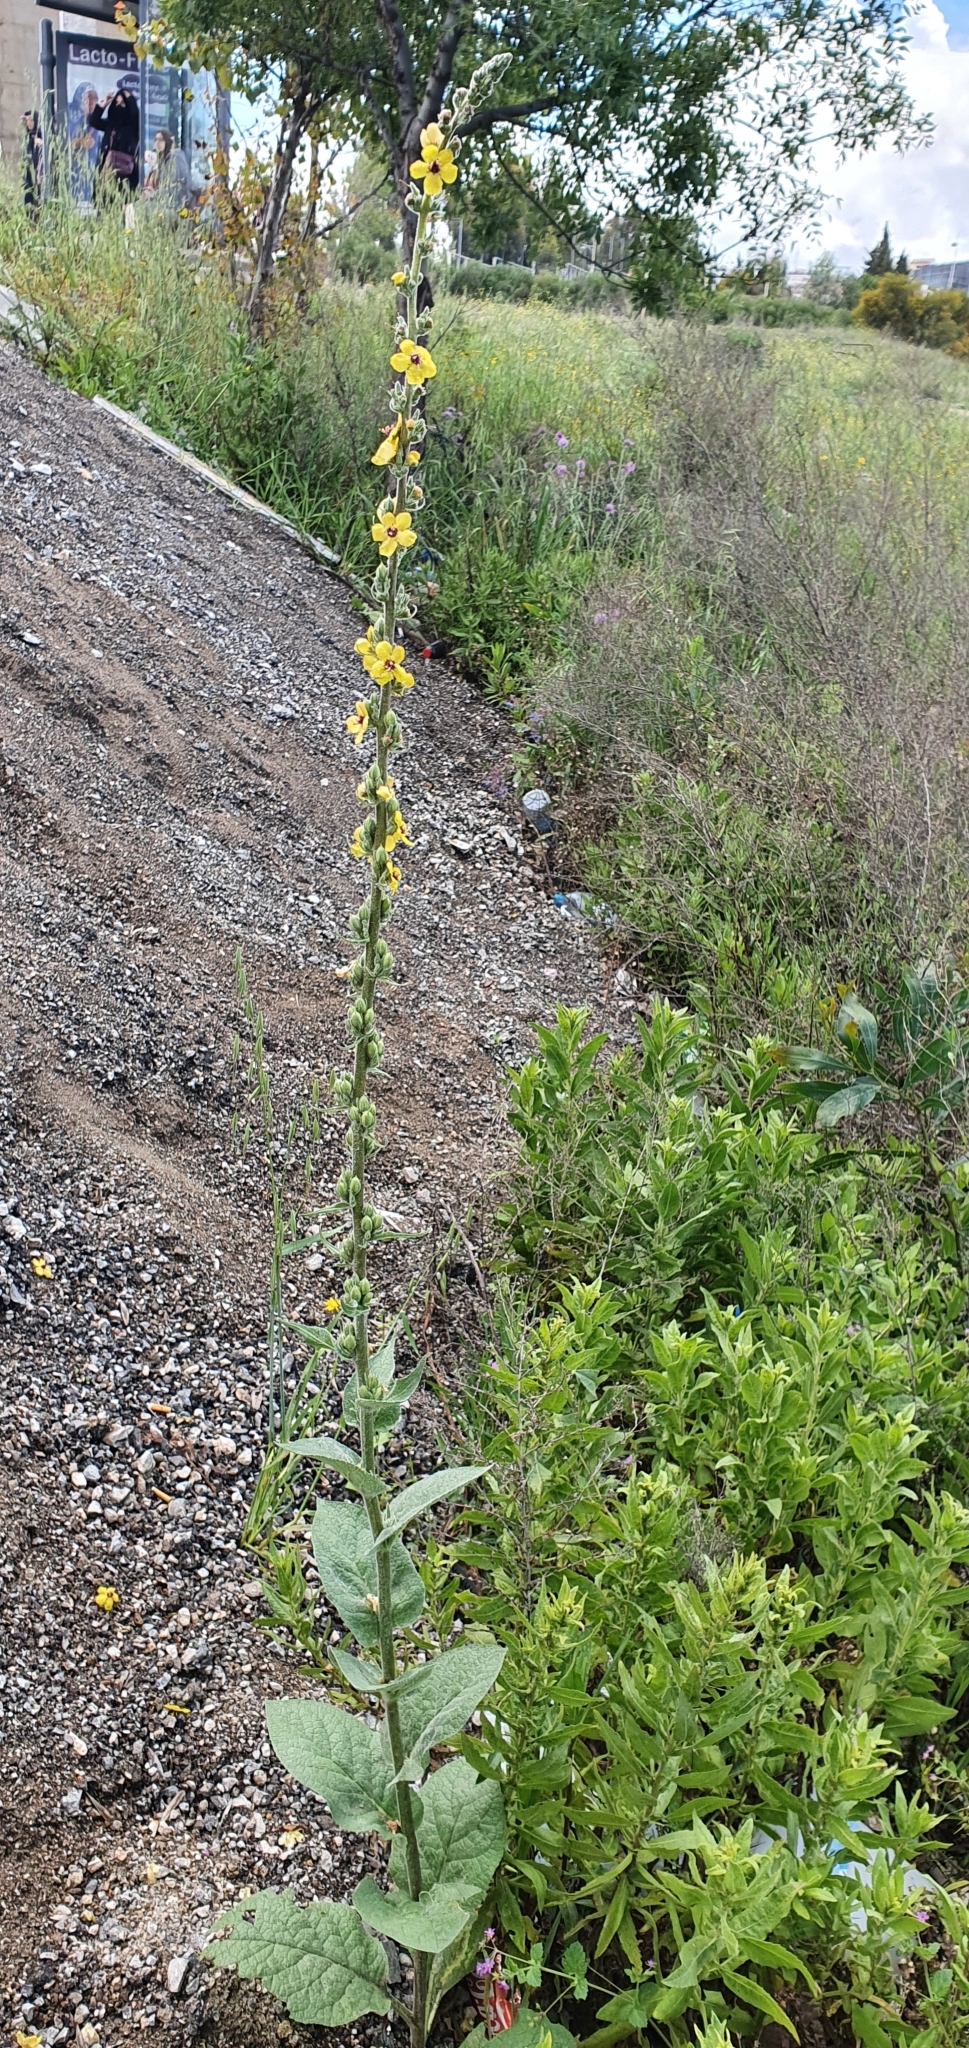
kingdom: Plantae
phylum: Tracheophyta
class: Magnoliopsida
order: Lamiales
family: Scrophulariaceae
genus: Verbascum
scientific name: Verbascum rotundifolium
